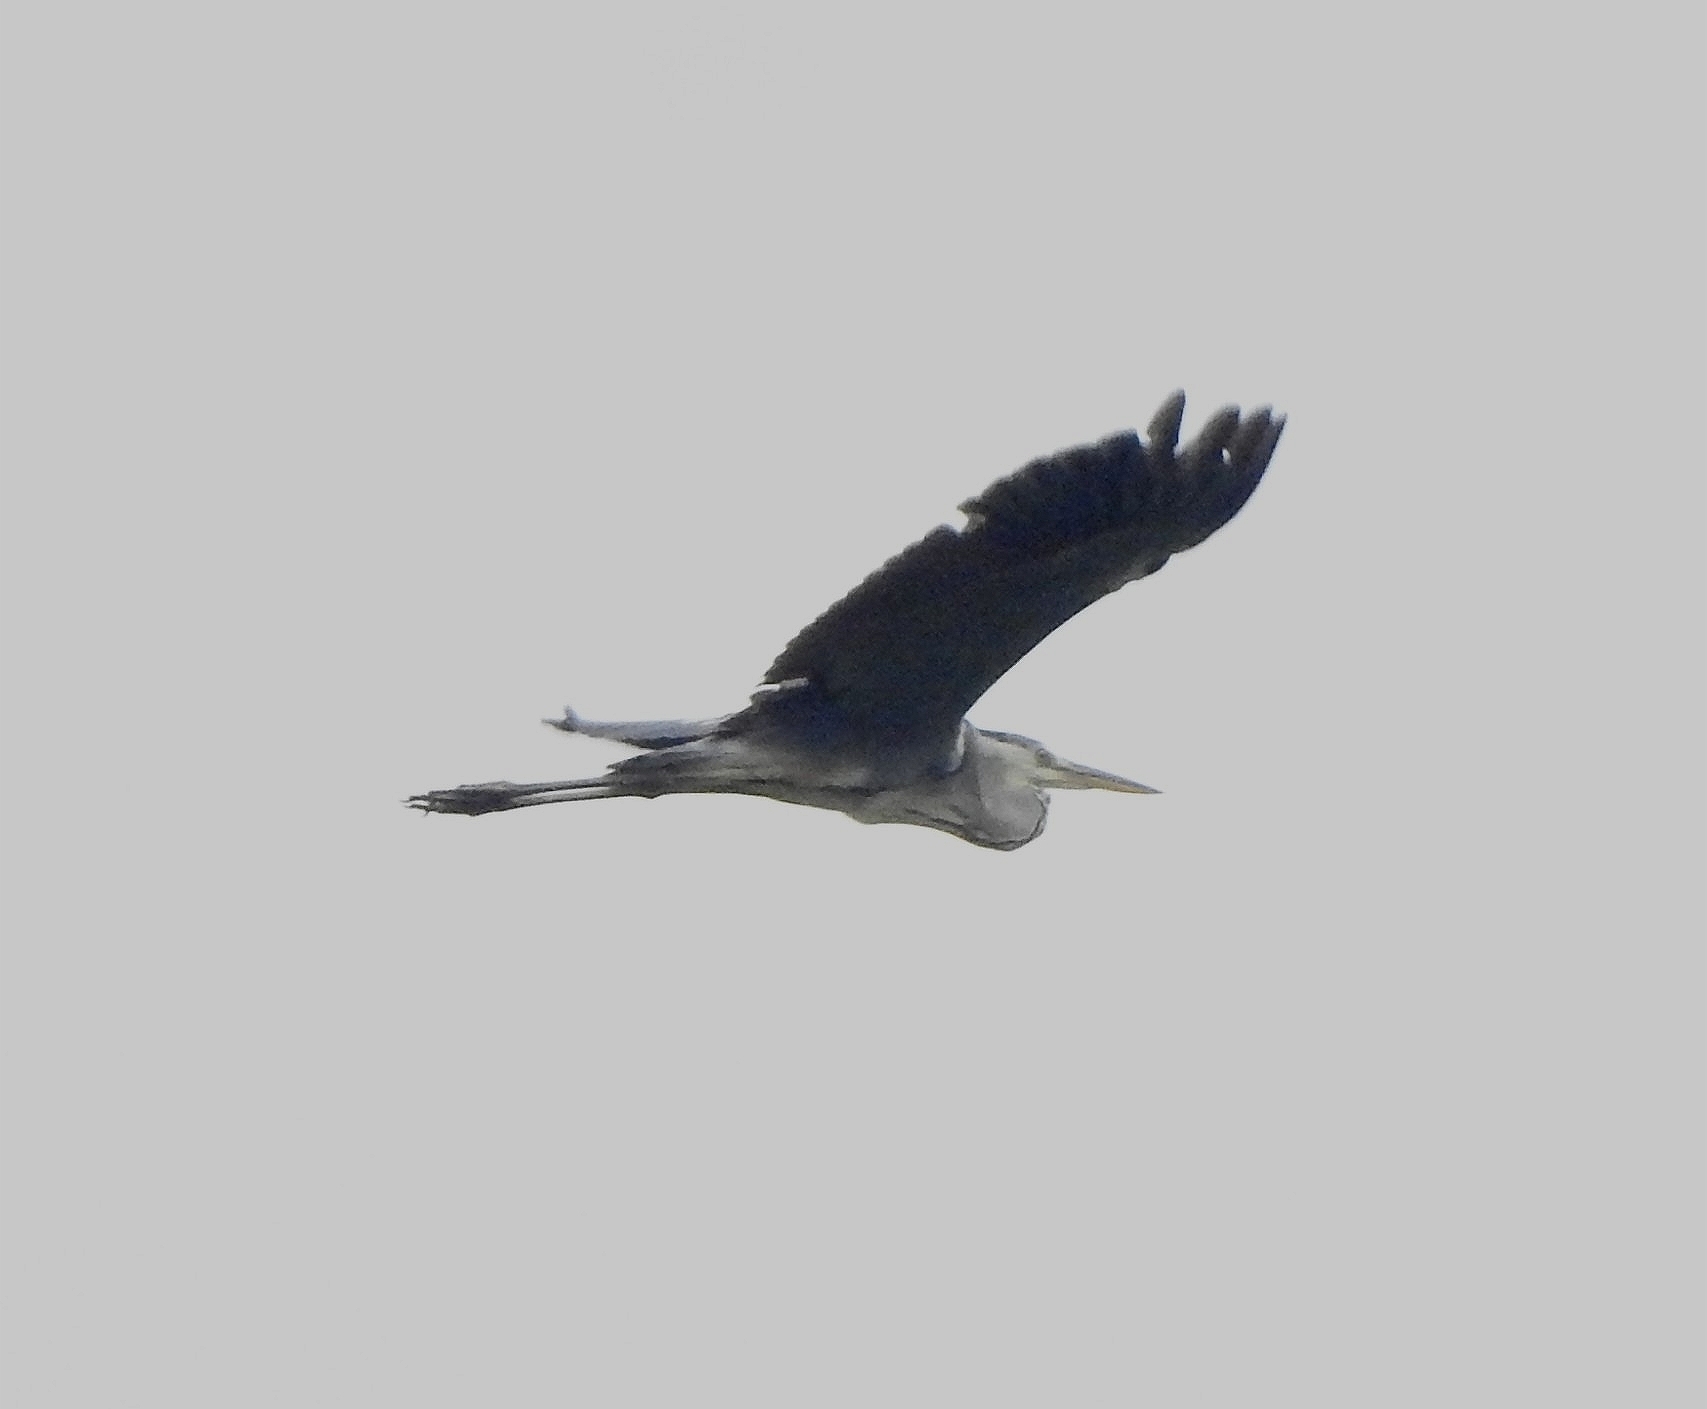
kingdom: Animalia
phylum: Chordata
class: Aves
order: Pelecaniformes
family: Ardeidae
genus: Ardea
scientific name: Ardea cinerea
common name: Grey heron
